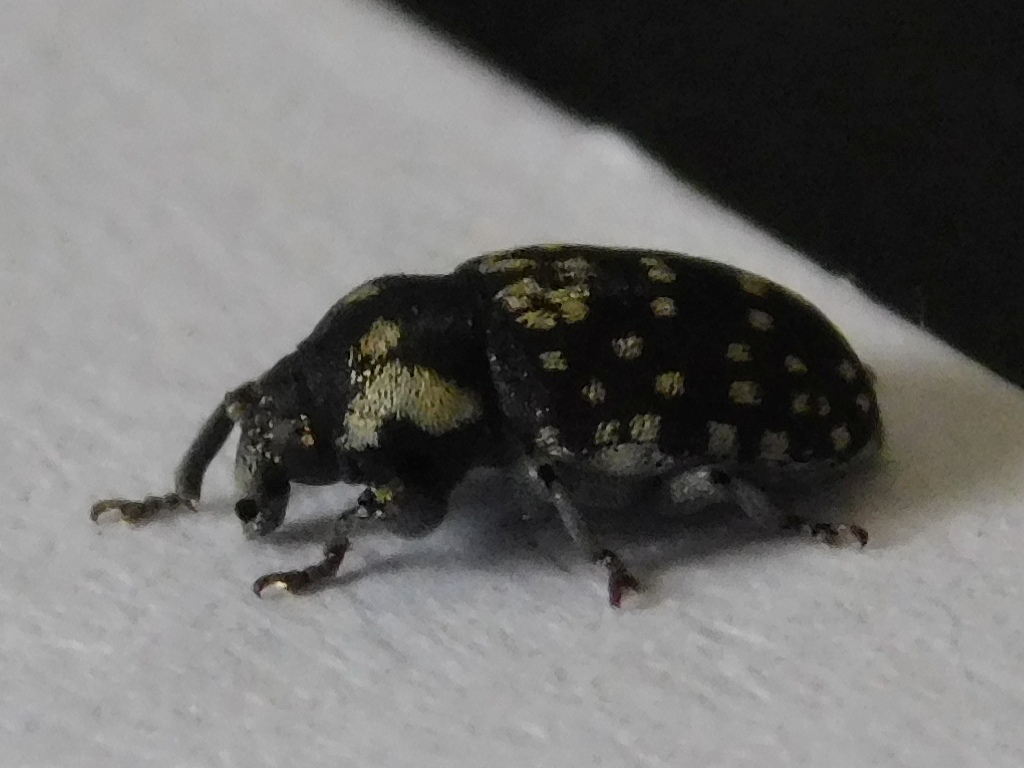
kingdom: Animalia
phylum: Arthropoda
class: Insecta
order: Coleoptera
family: Curculionidae
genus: Nerthops
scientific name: Nerthops sticticus
